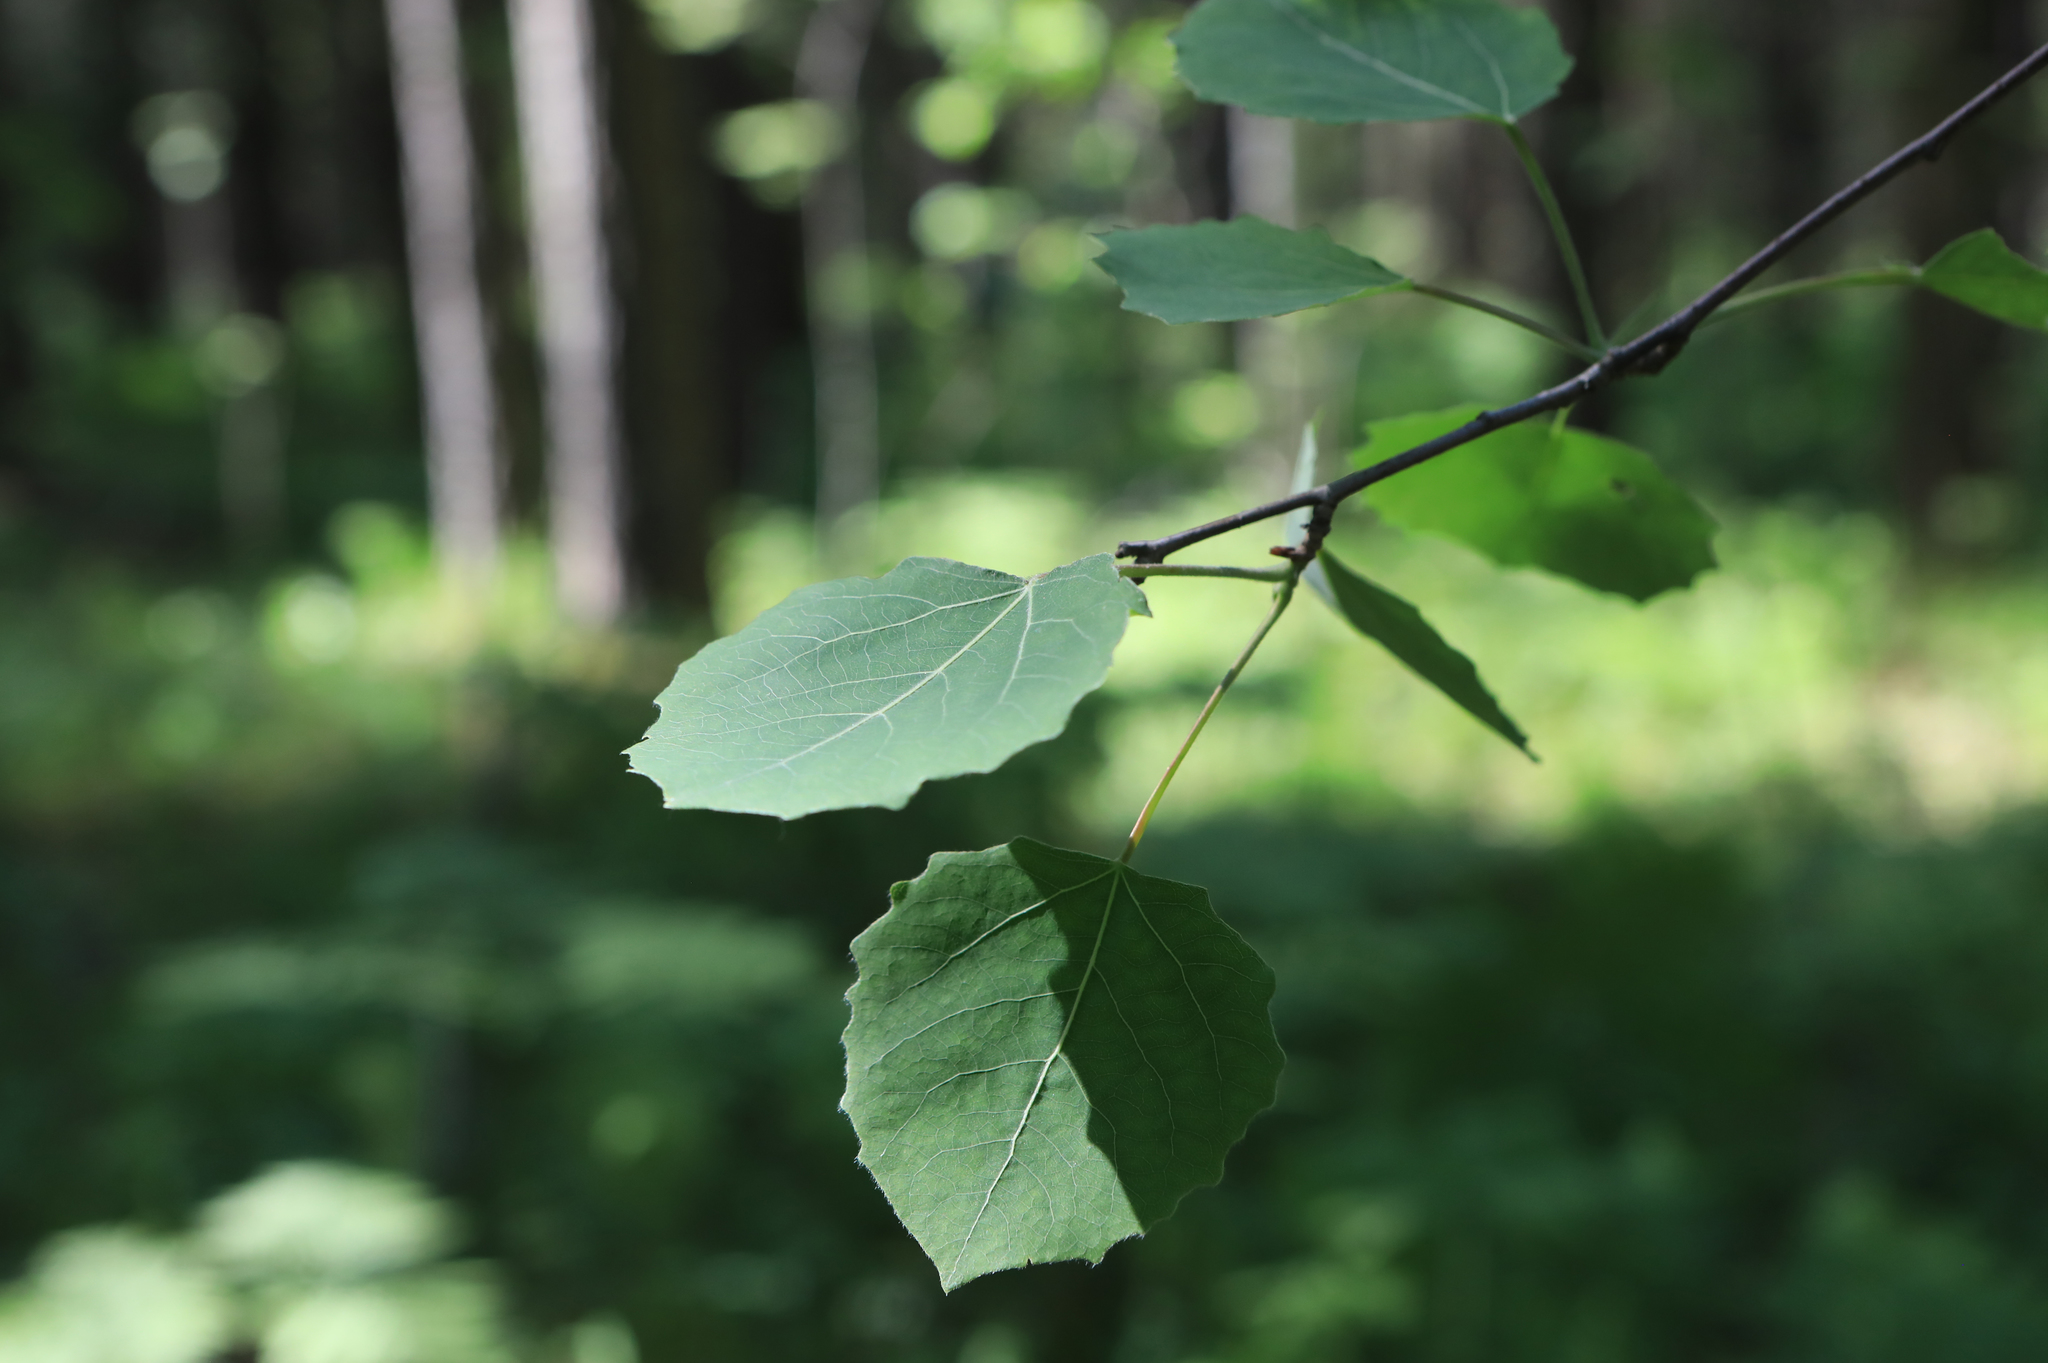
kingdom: Plantae
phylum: Tracheophyta
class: Magnoliopsida
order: Malpighiales
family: Salicaceae
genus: Populus
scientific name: Populus tremula
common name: European aspen
